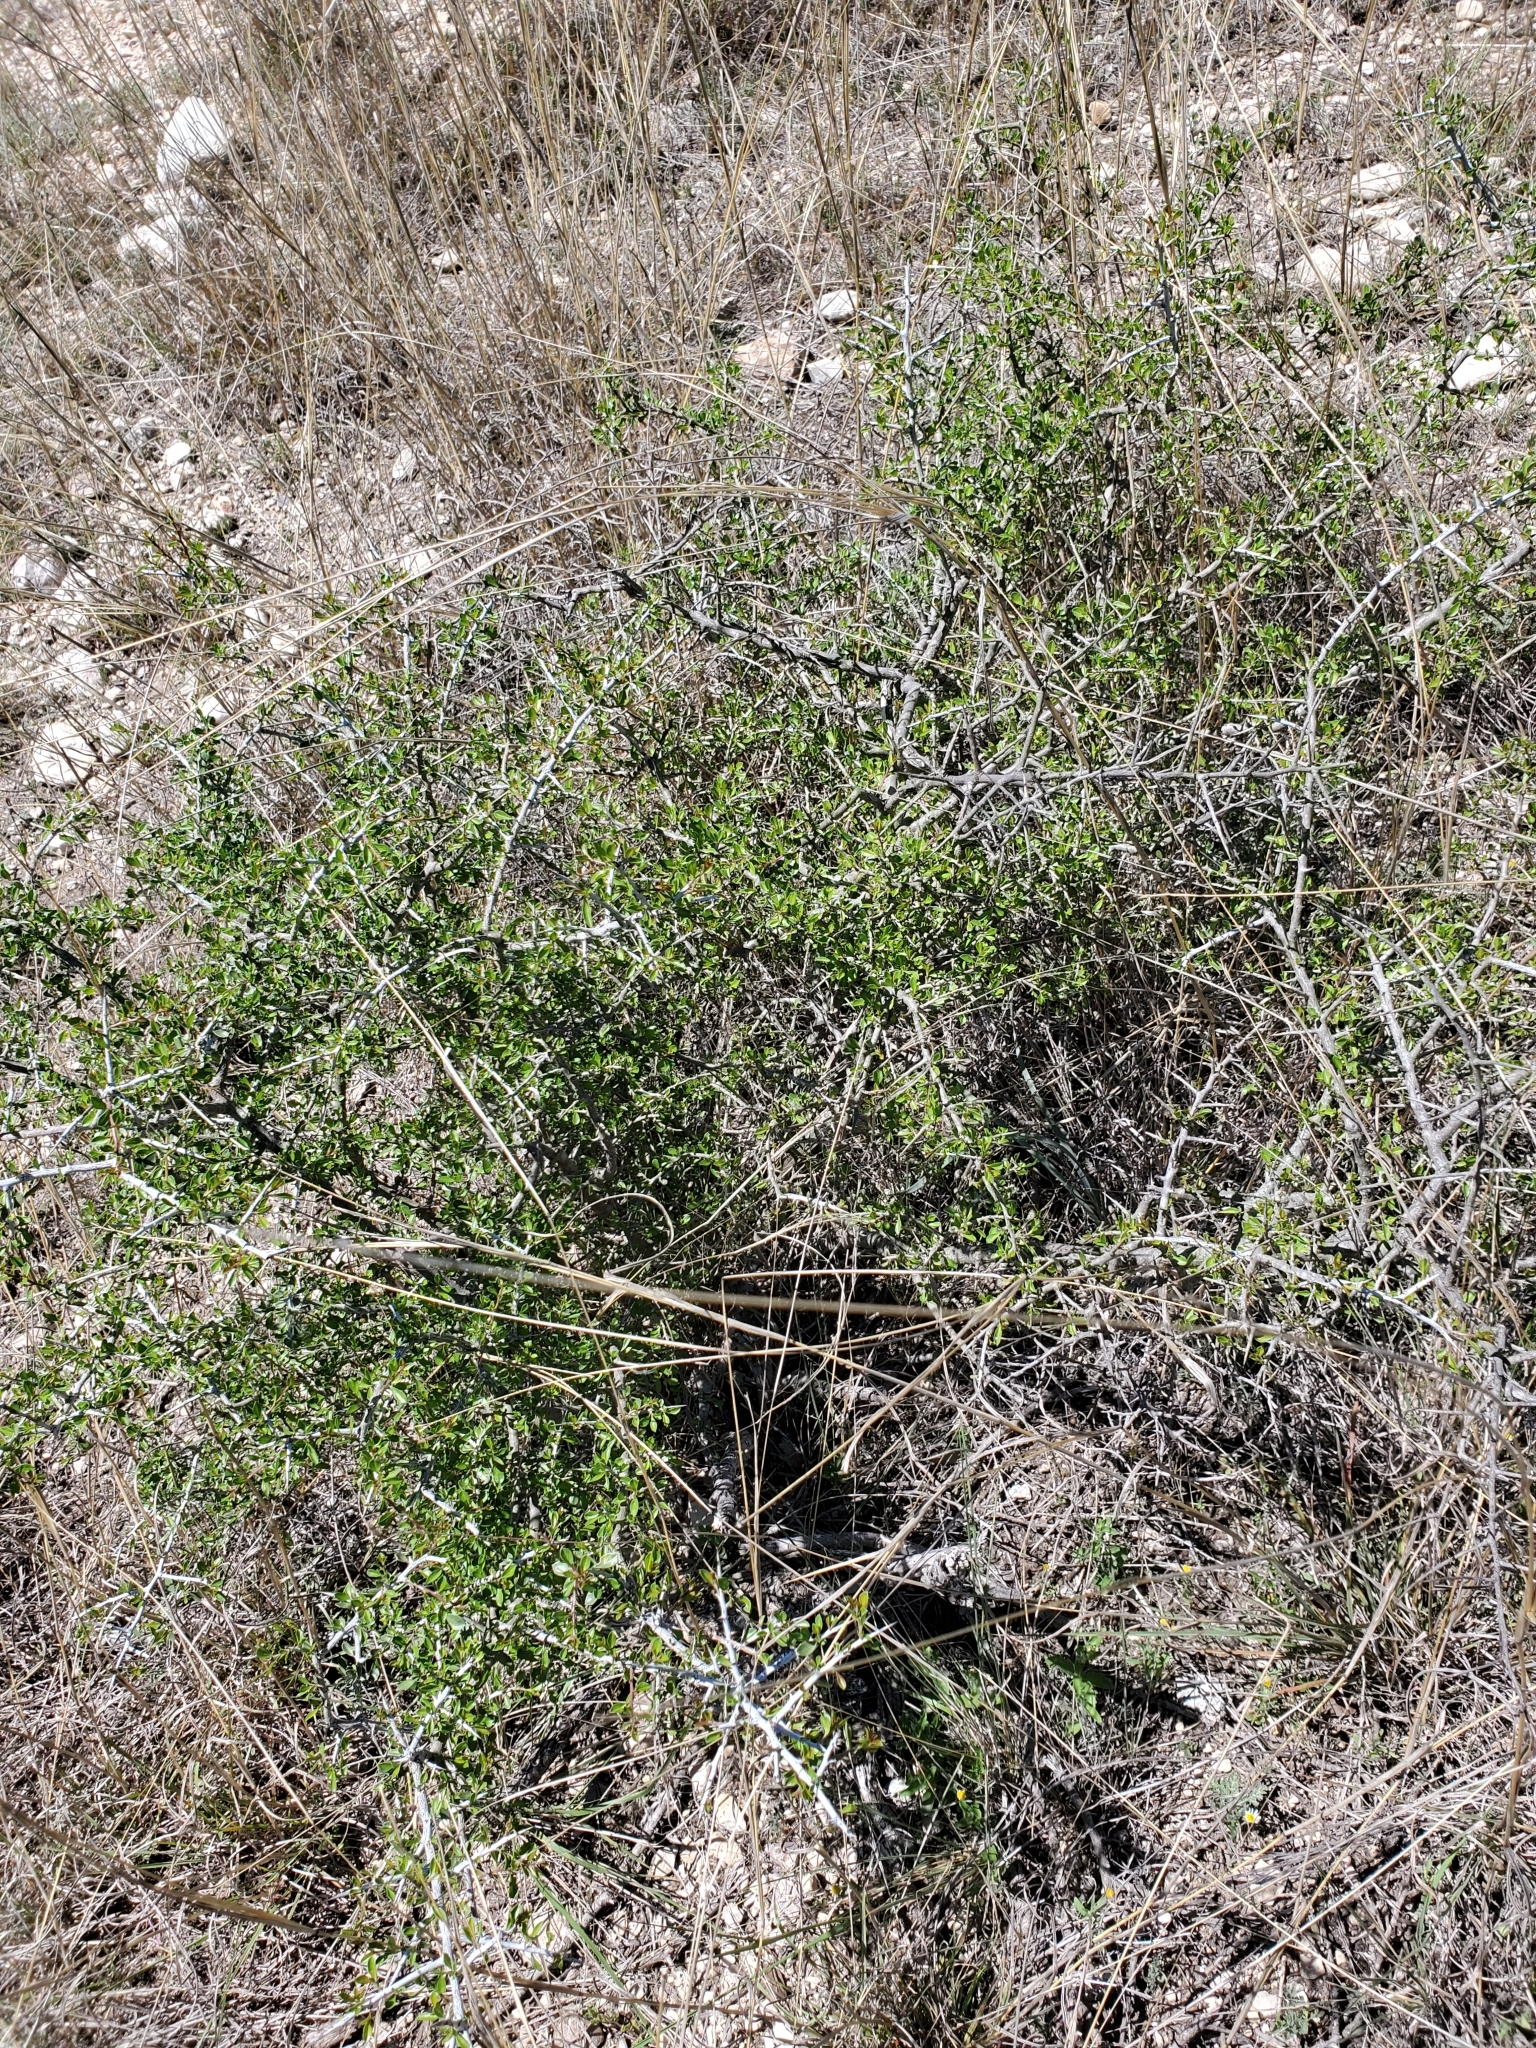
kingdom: Plantae
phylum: Tracheophyta
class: Magnoliopsida
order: Rosales
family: Rhamnaceae
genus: Condalia
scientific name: Condalia viridis
